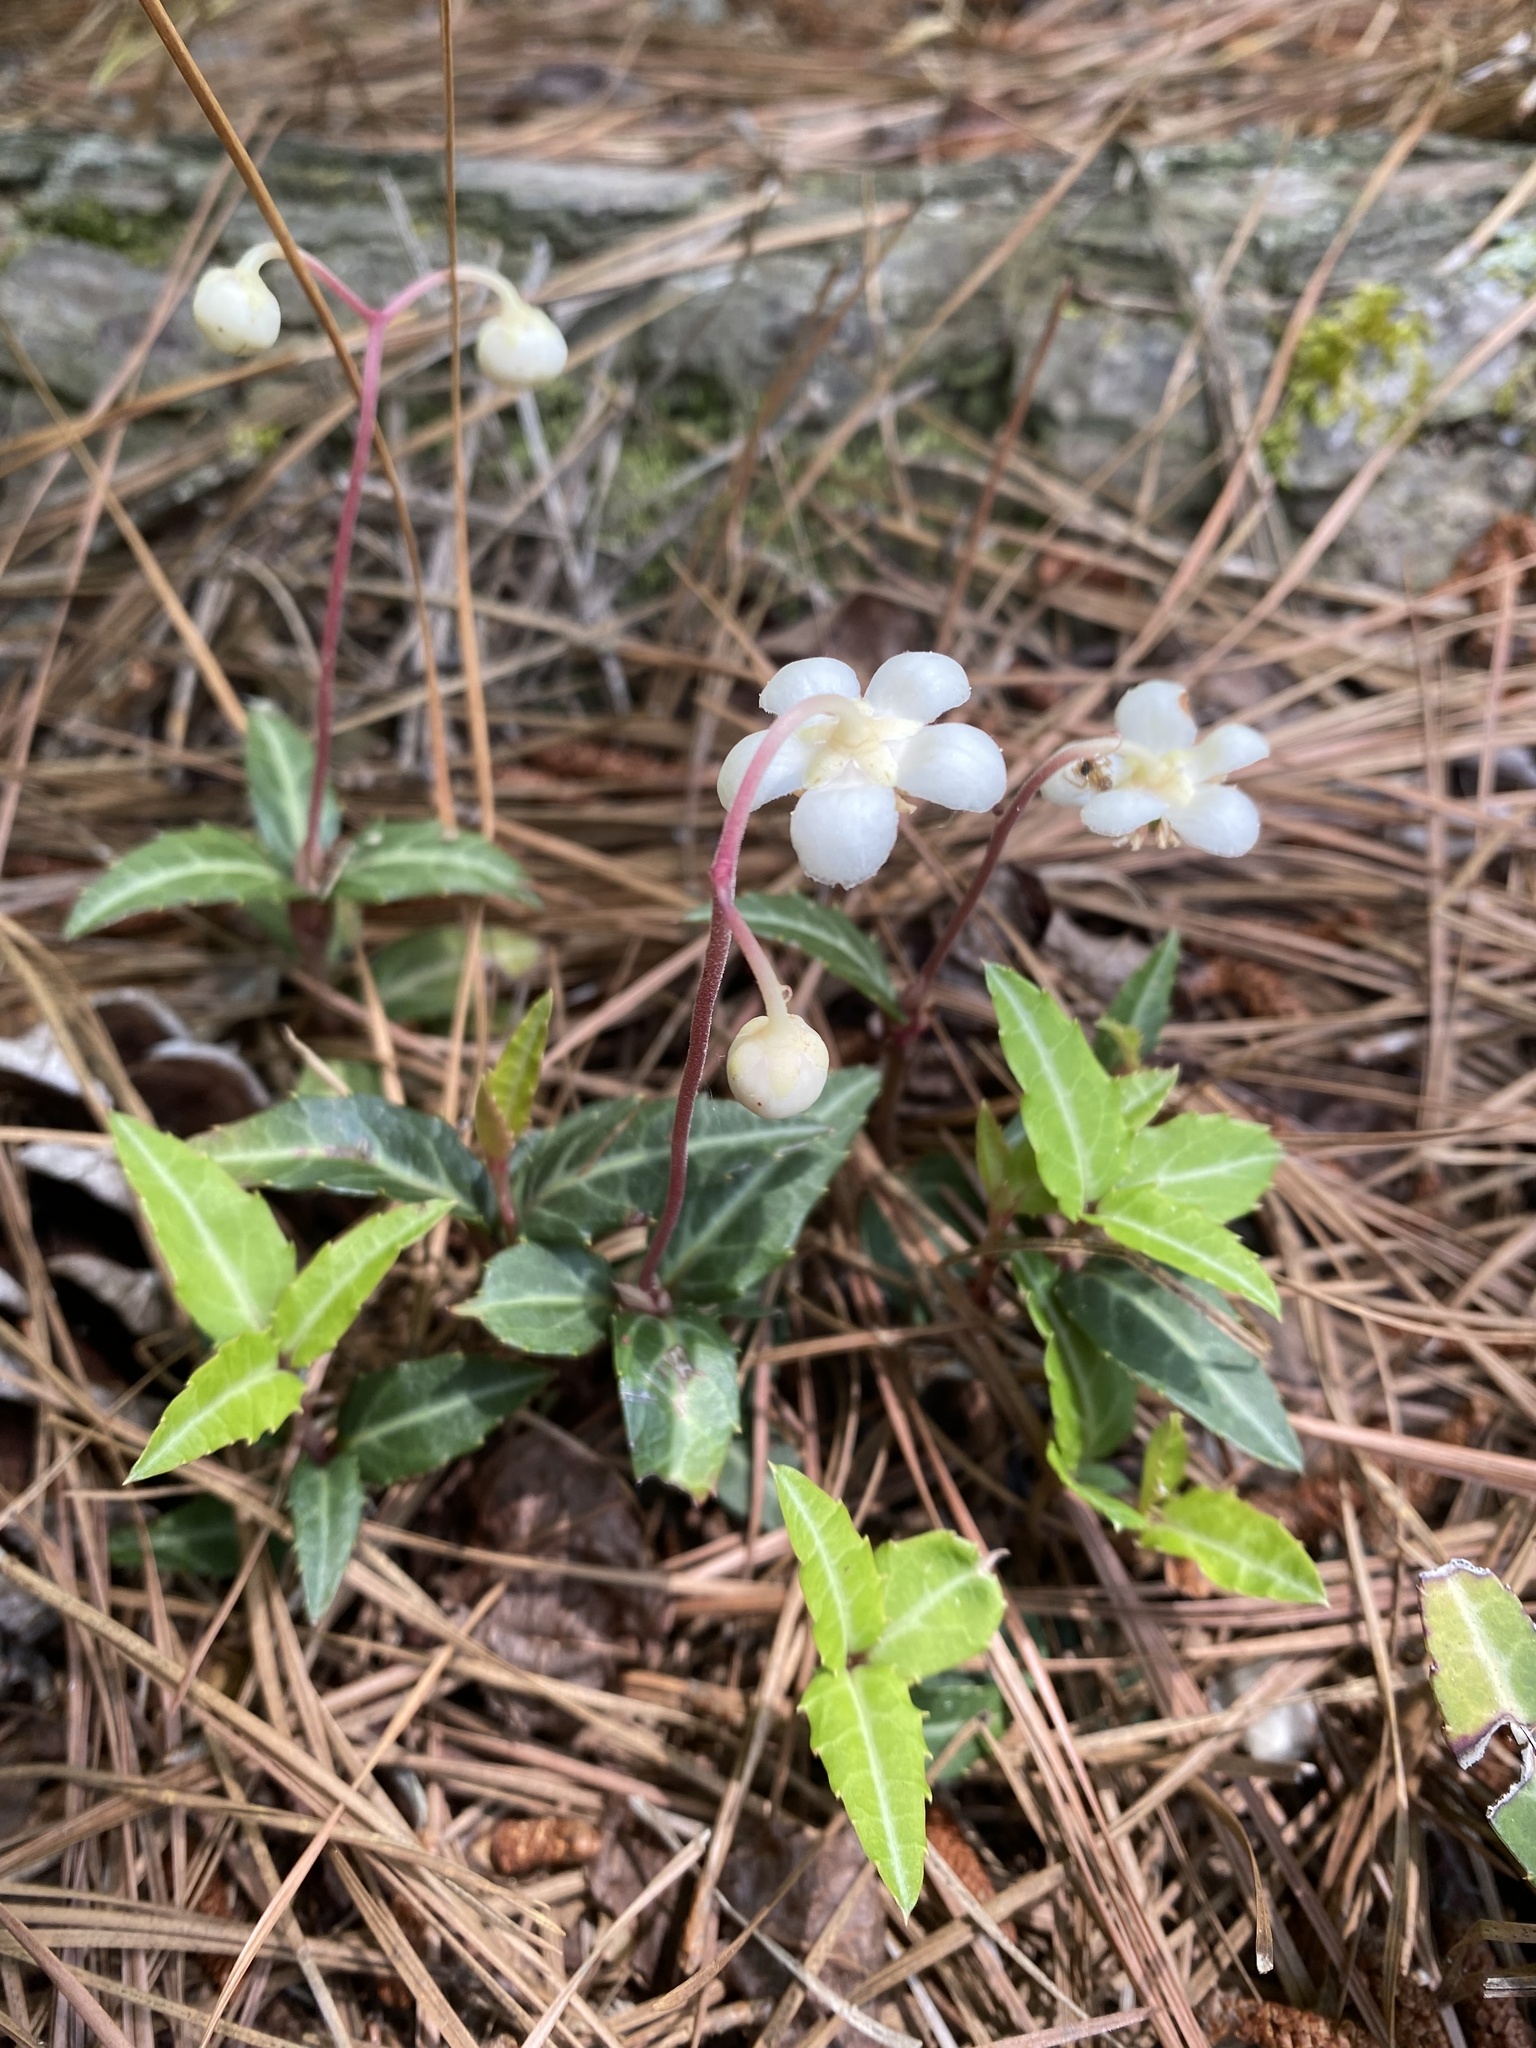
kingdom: Plantae
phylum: Tracheophyta
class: Magnoliopsida
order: Ericales
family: Ericaceae
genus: Chimaphila
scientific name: Chimaphila maculata
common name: Spotted pipsissewa
